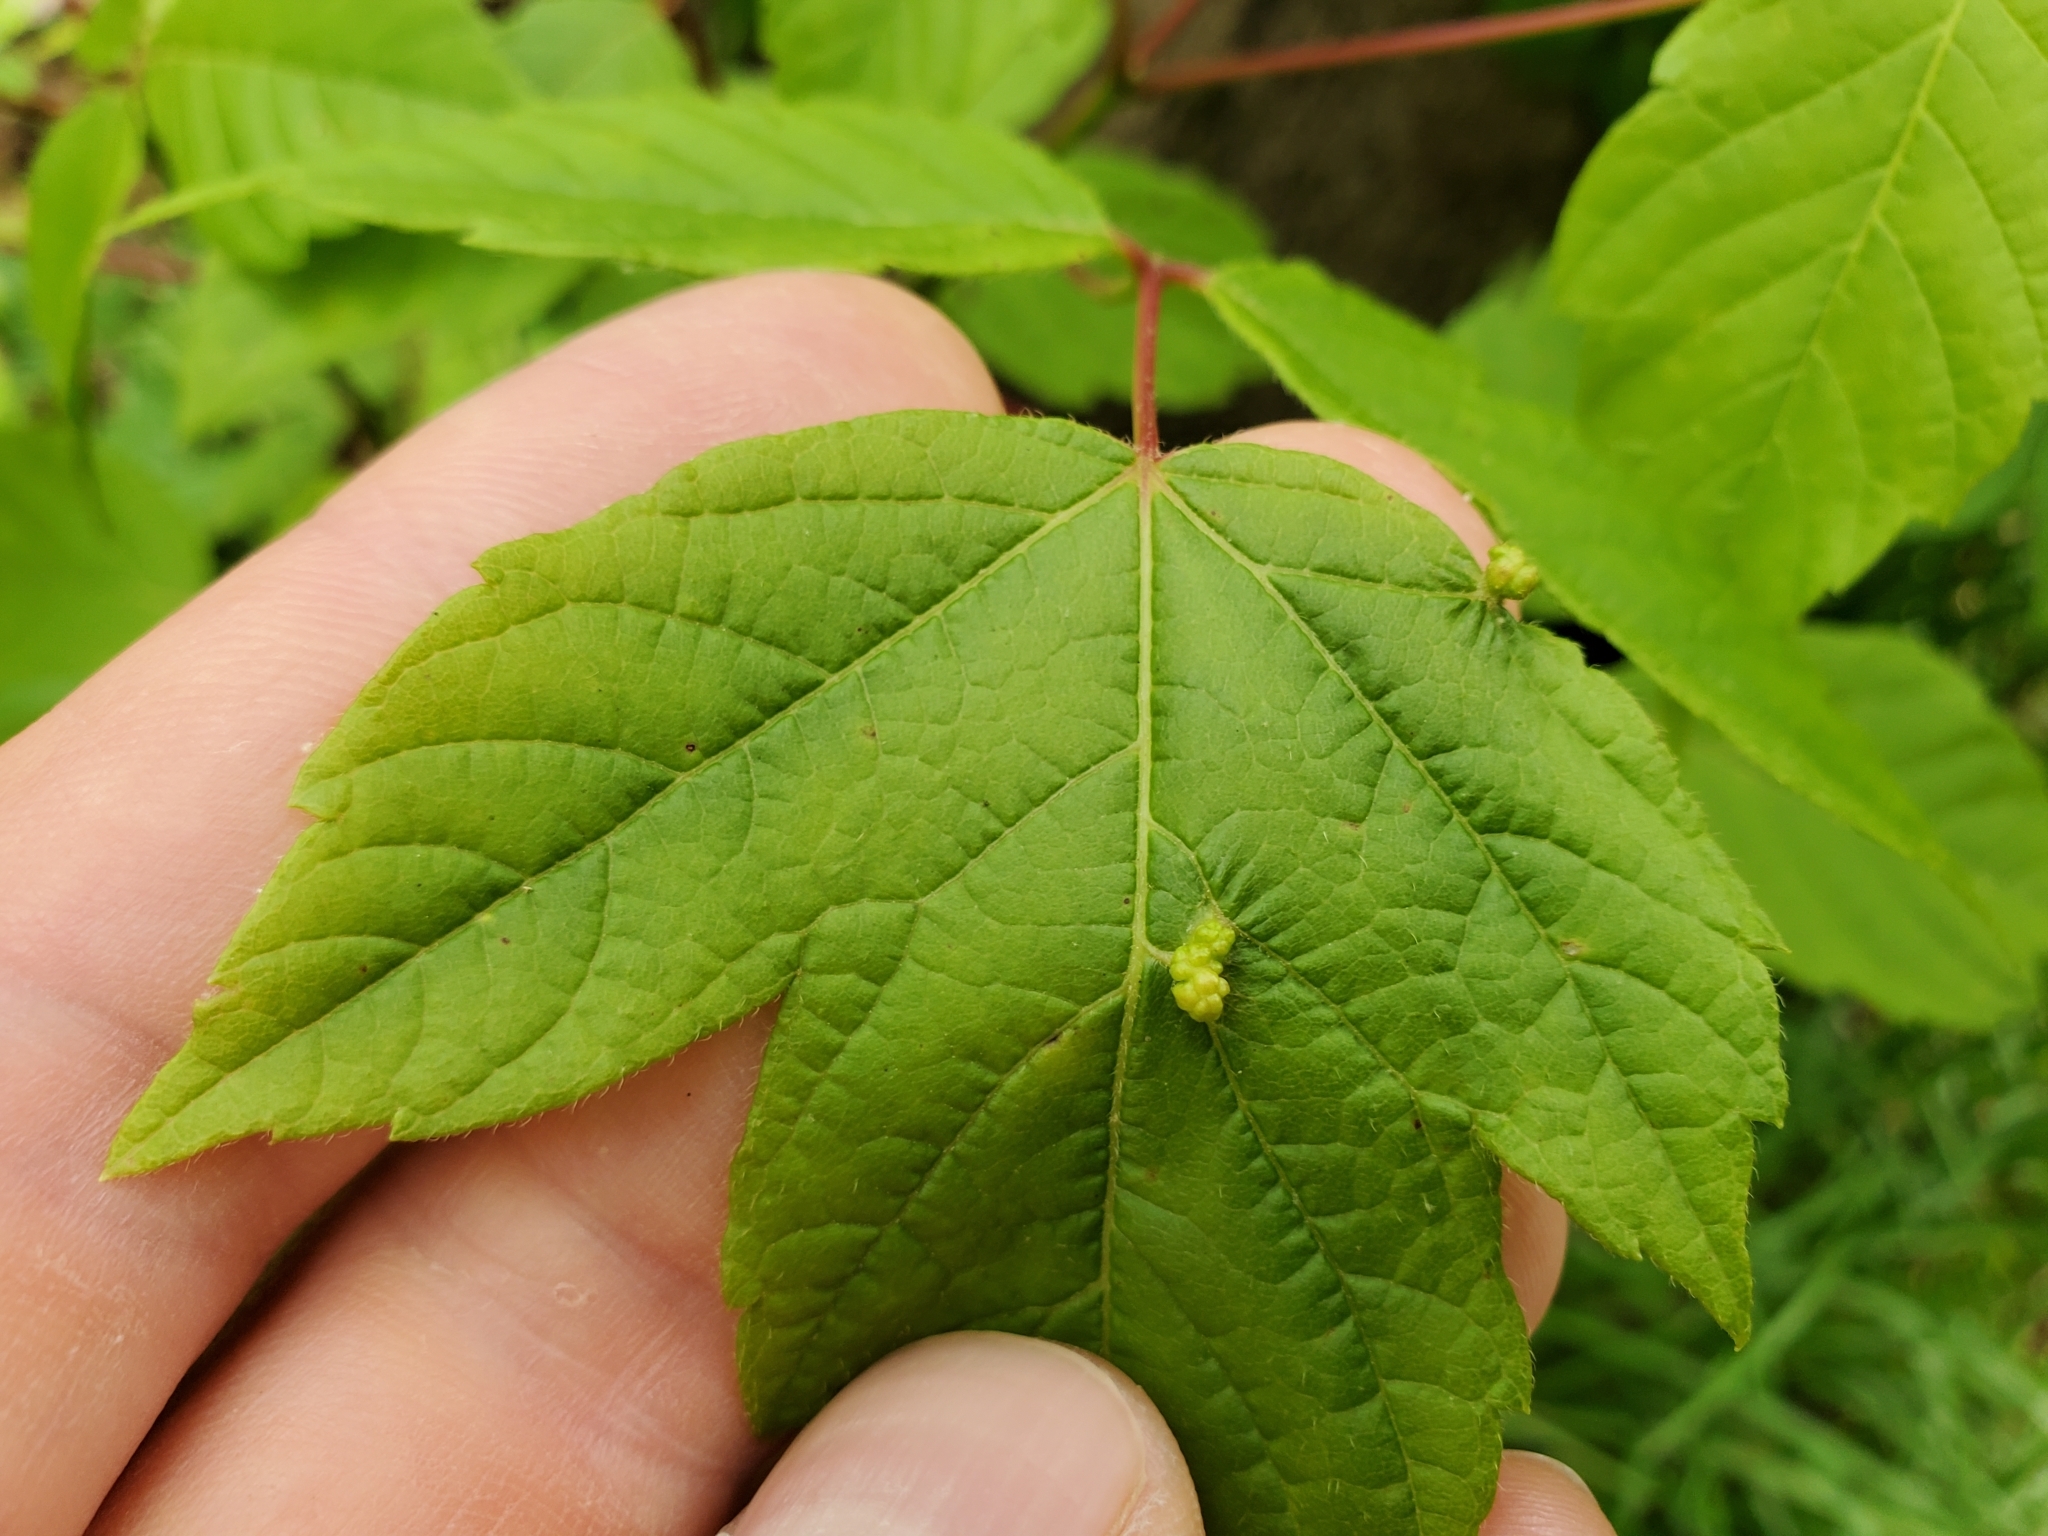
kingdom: Animalia
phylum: Arthropoda
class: Arachnida
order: Trombidiformes
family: Eriophyidae
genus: Aceria
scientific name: Aceria
